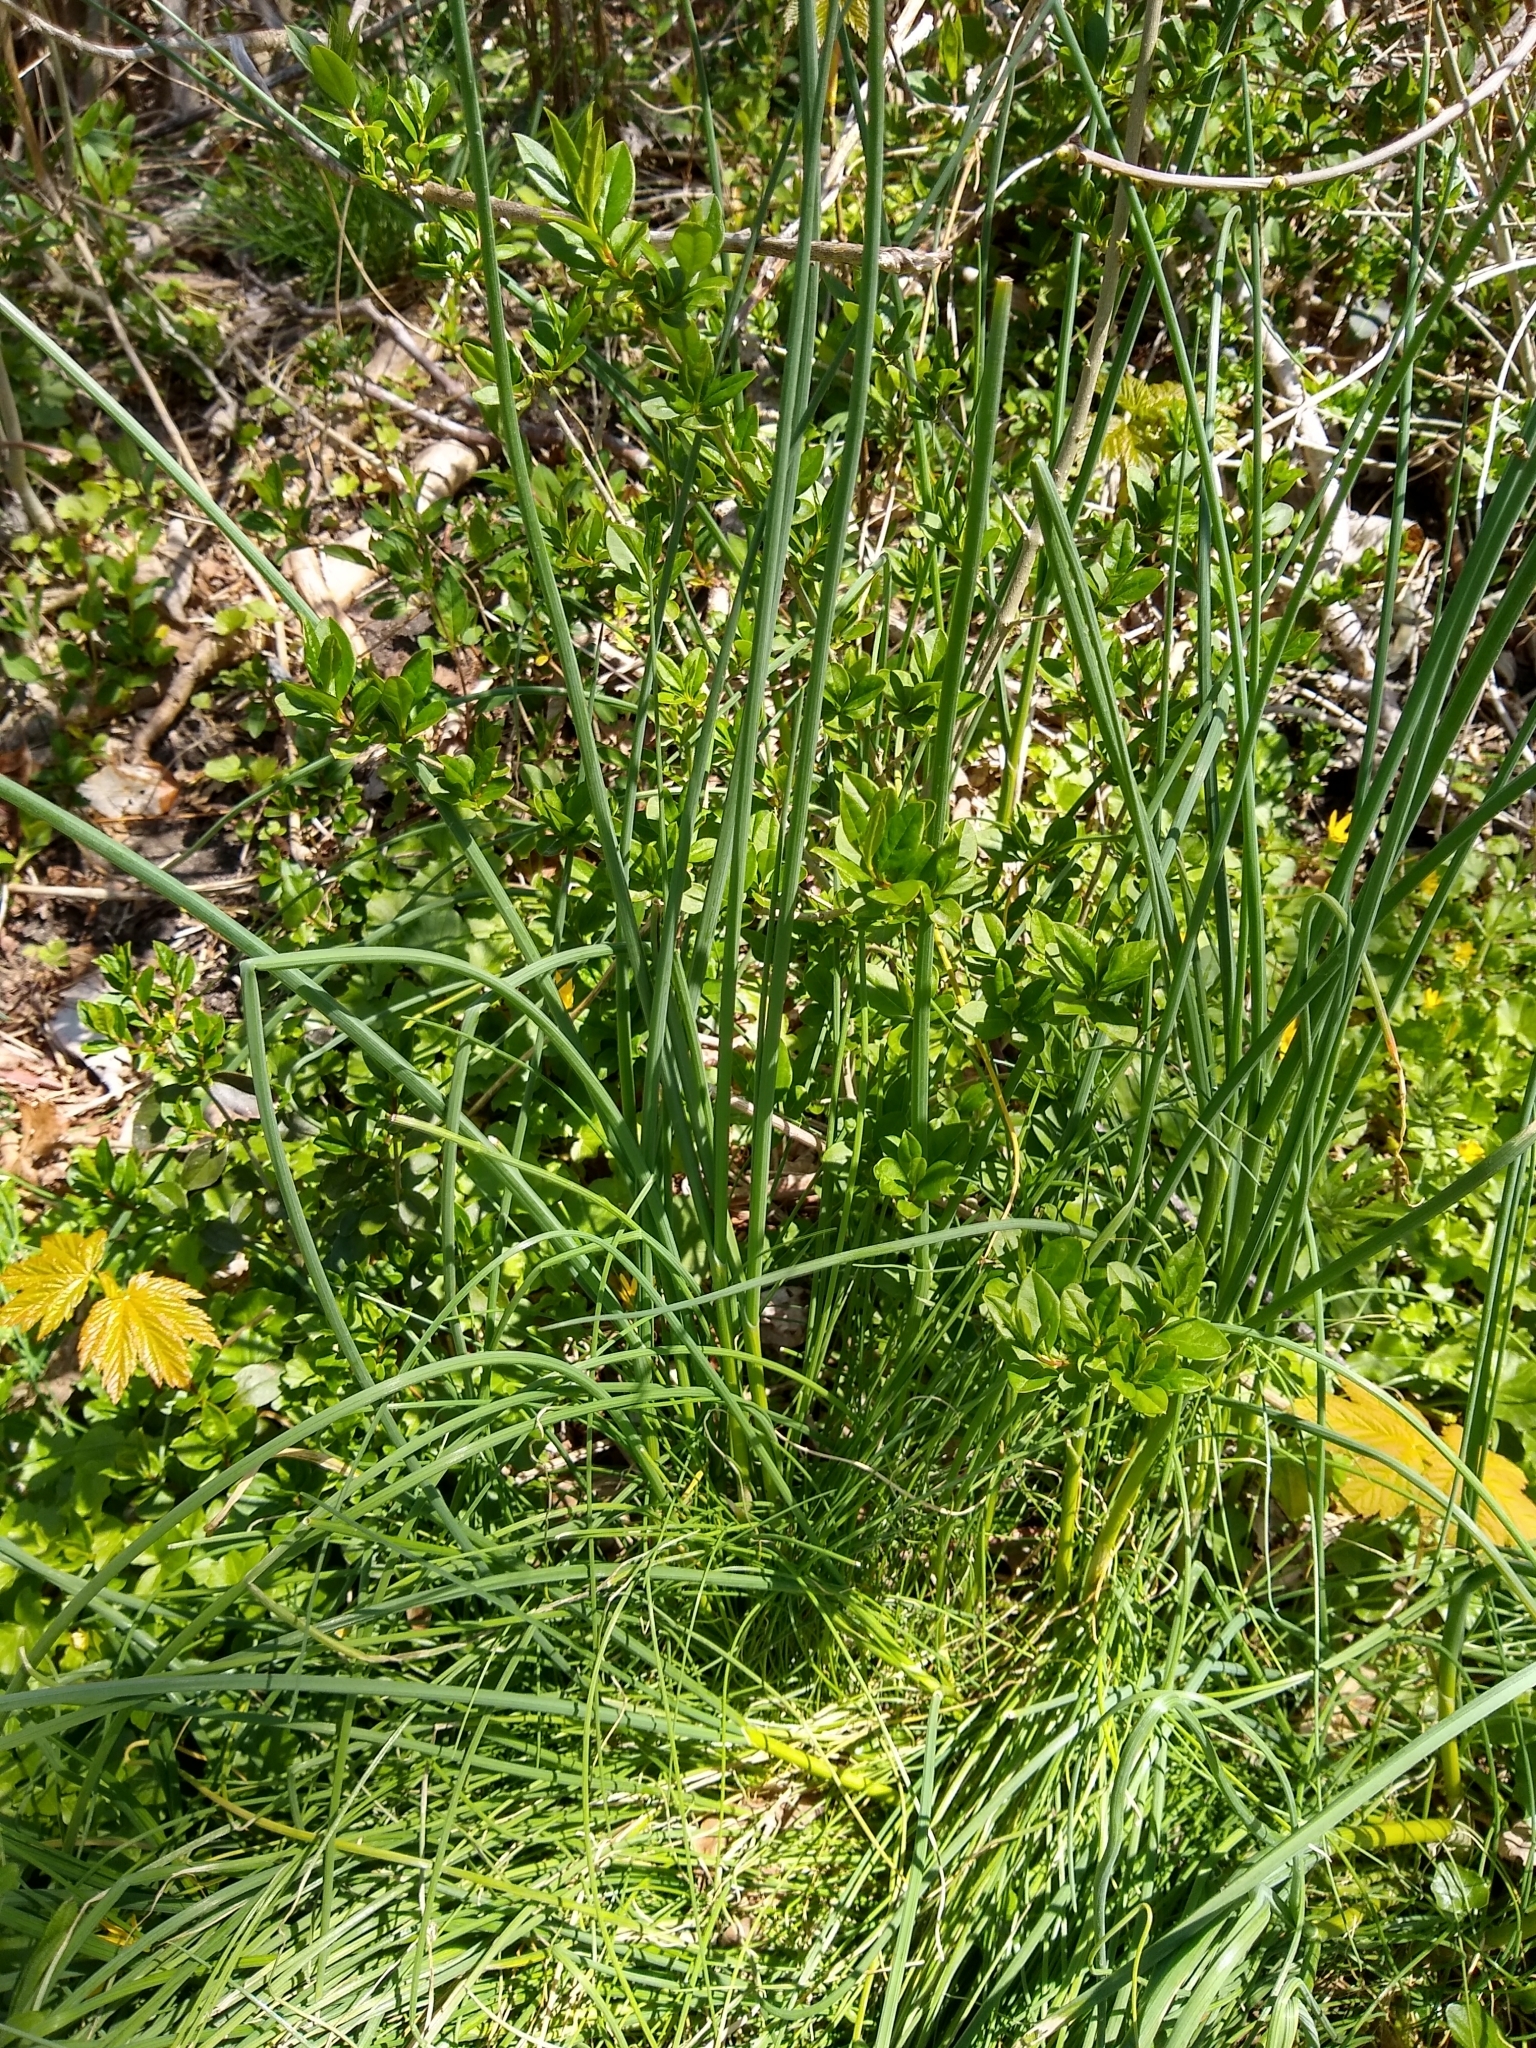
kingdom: Plantae
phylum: Tracheophyta
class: Liliopsida
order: Asparagales
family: Amaryllidaceae
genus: Allium
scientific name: Allium vineale
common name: Crow garlic
